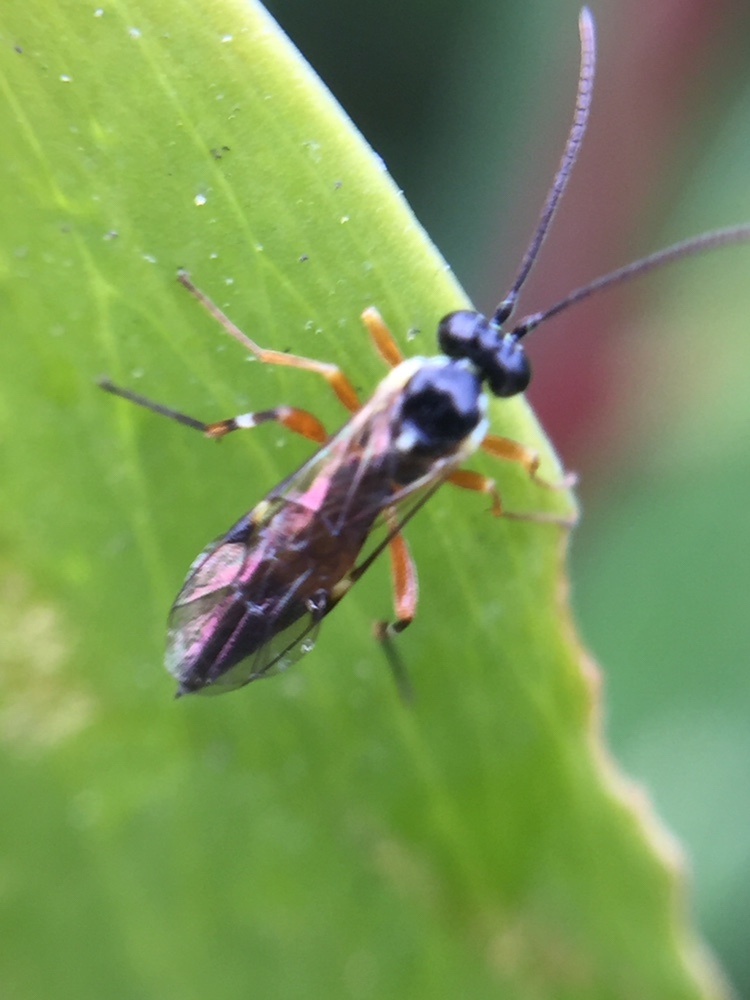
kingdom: Animalia
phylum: Arthropoda
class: Insecta
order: Hymenoptera
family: Ichneumonidae
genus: Diplazon
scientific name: Diplazon laetatorius
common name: Parasitoid wasp
